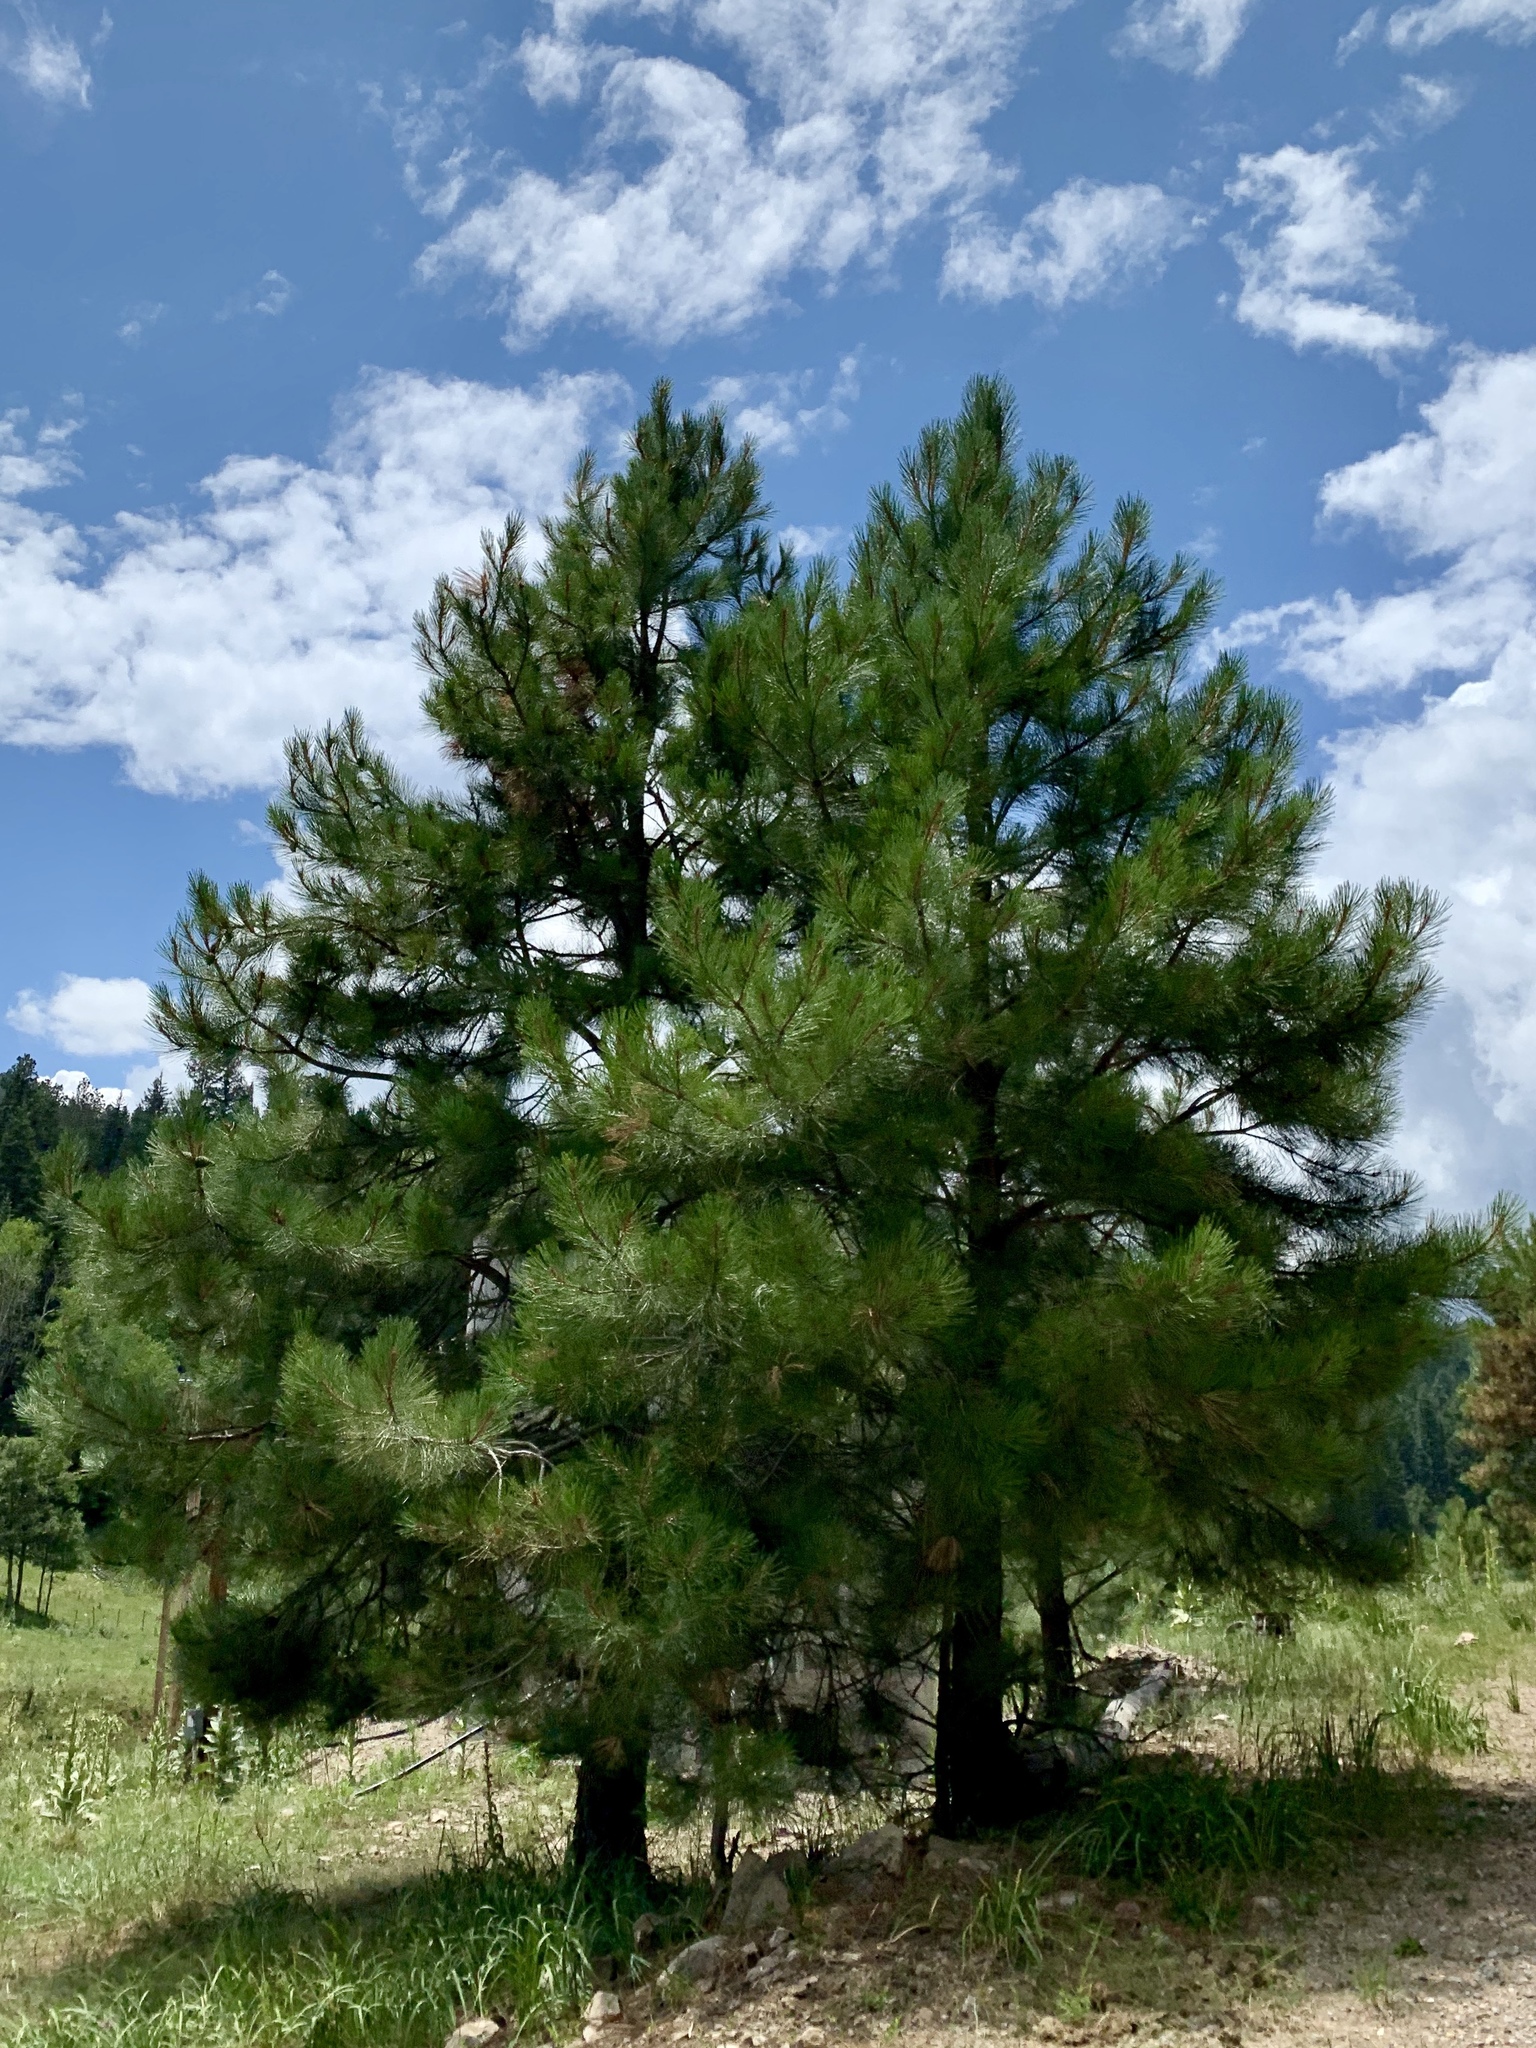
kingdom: Plantae
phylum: Tracheophyta
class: Pinopsida
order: Pinales
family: Pinaceae
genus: Pinus
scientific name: Pinus ponderosa
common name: Western yellow-pine
